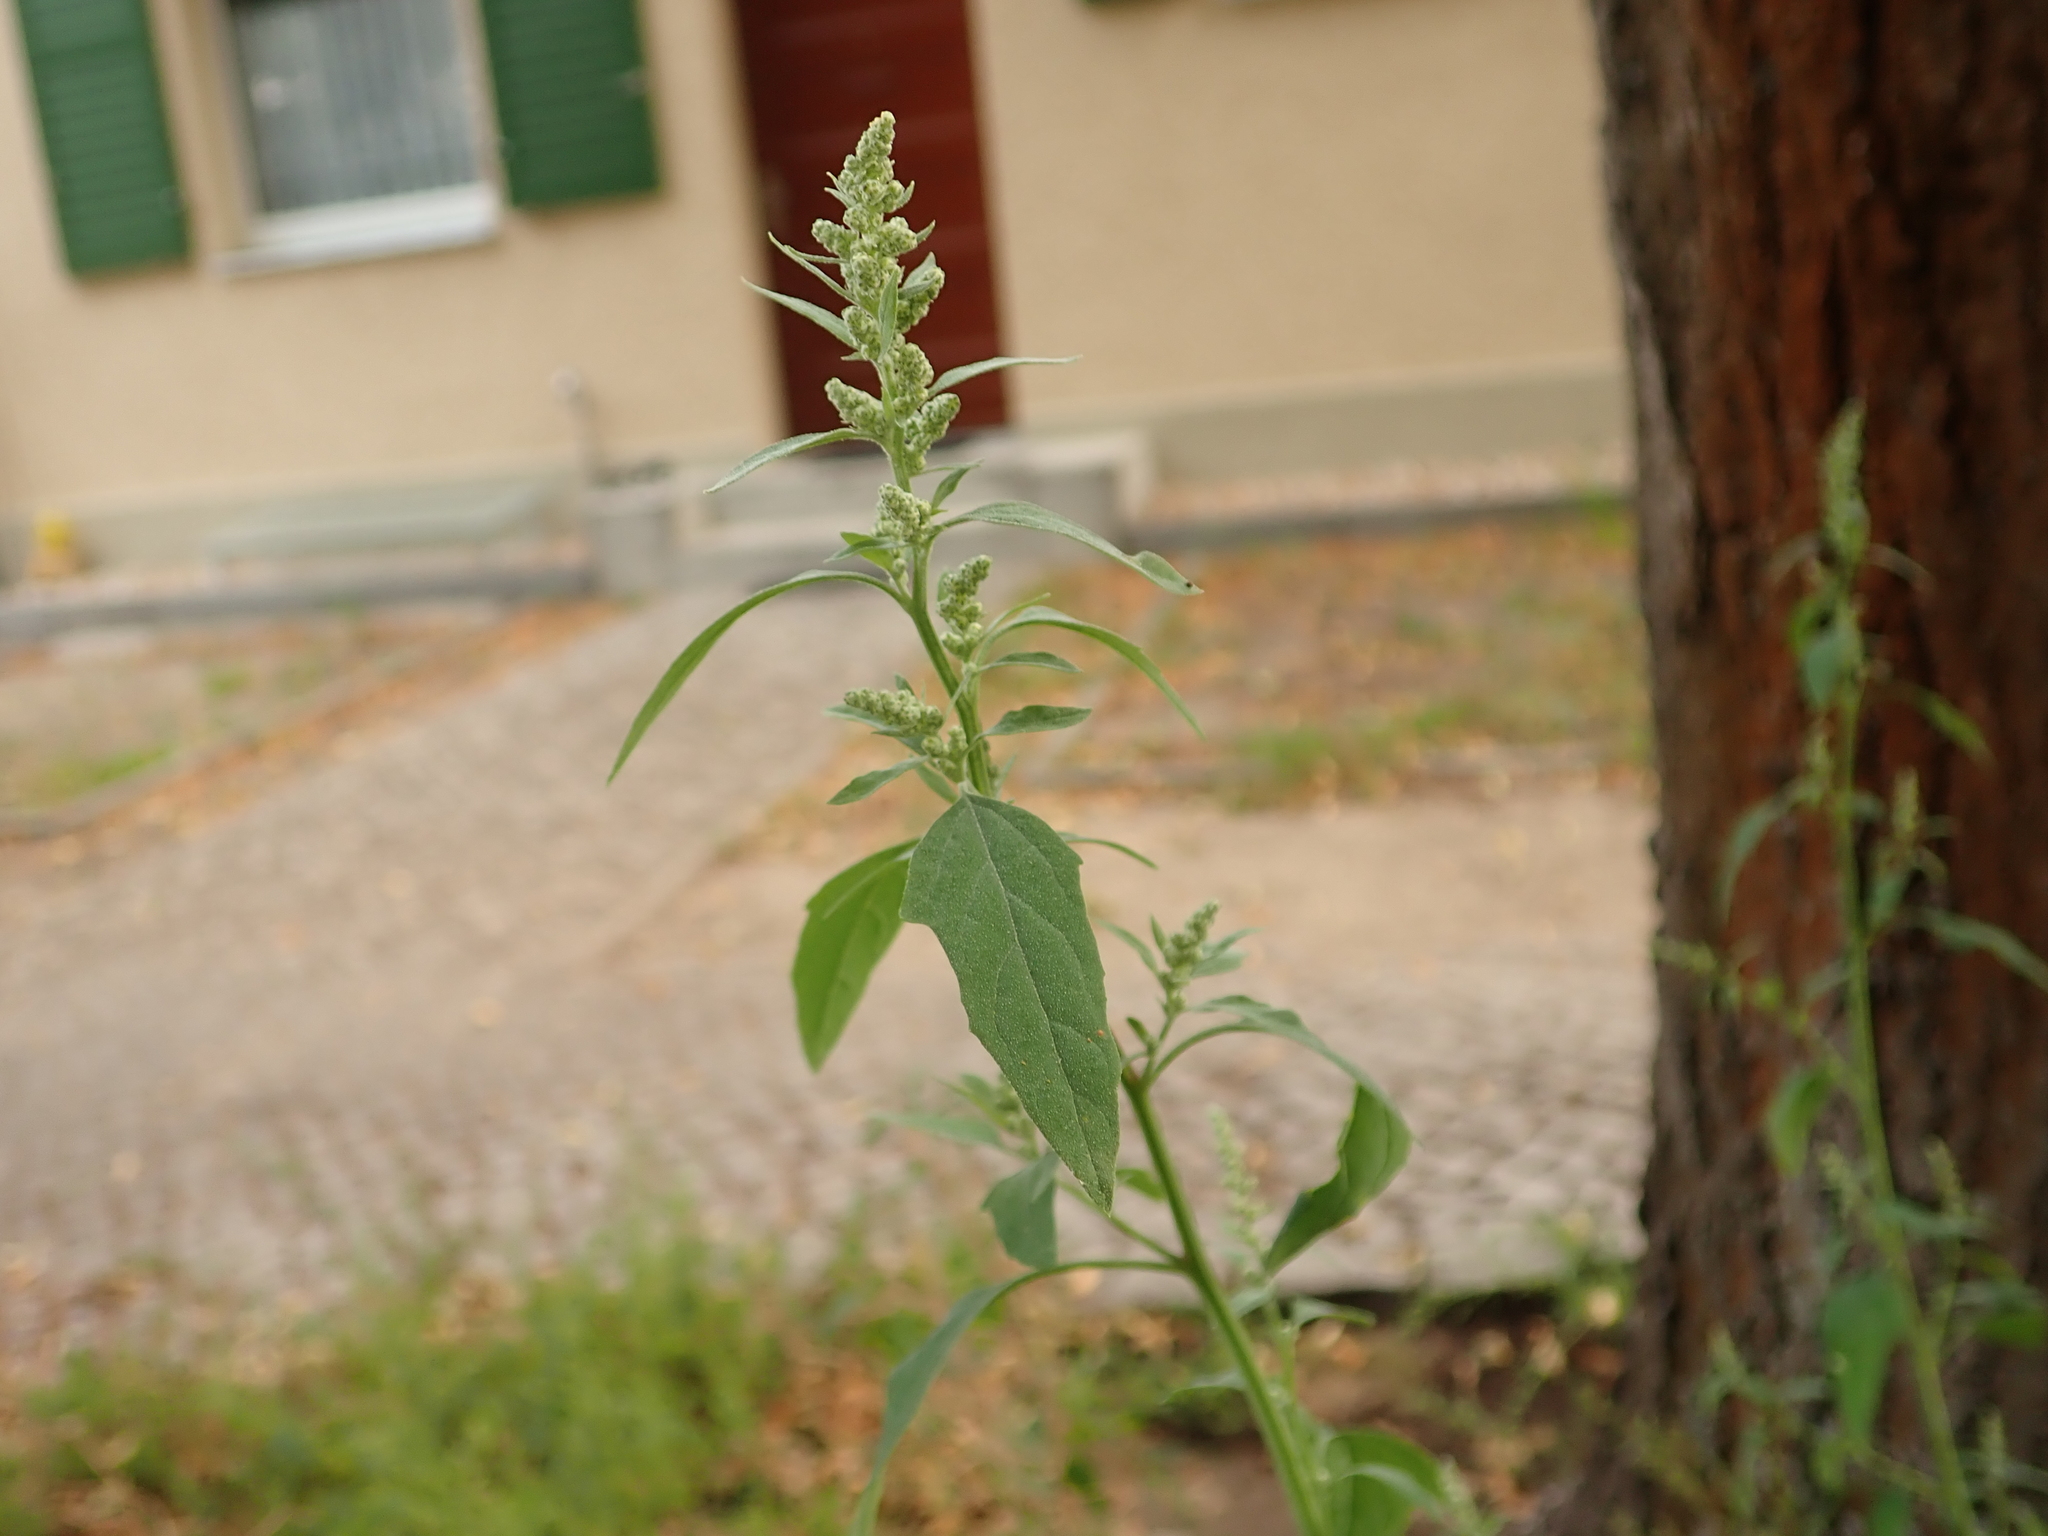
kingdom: Plantae
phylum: Tracheophyta
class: Magnoliopsida
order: Caryophyllales
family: Amaranthaceae
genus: Chenopodium
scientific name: Chenopodium album
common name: Fat-hen
